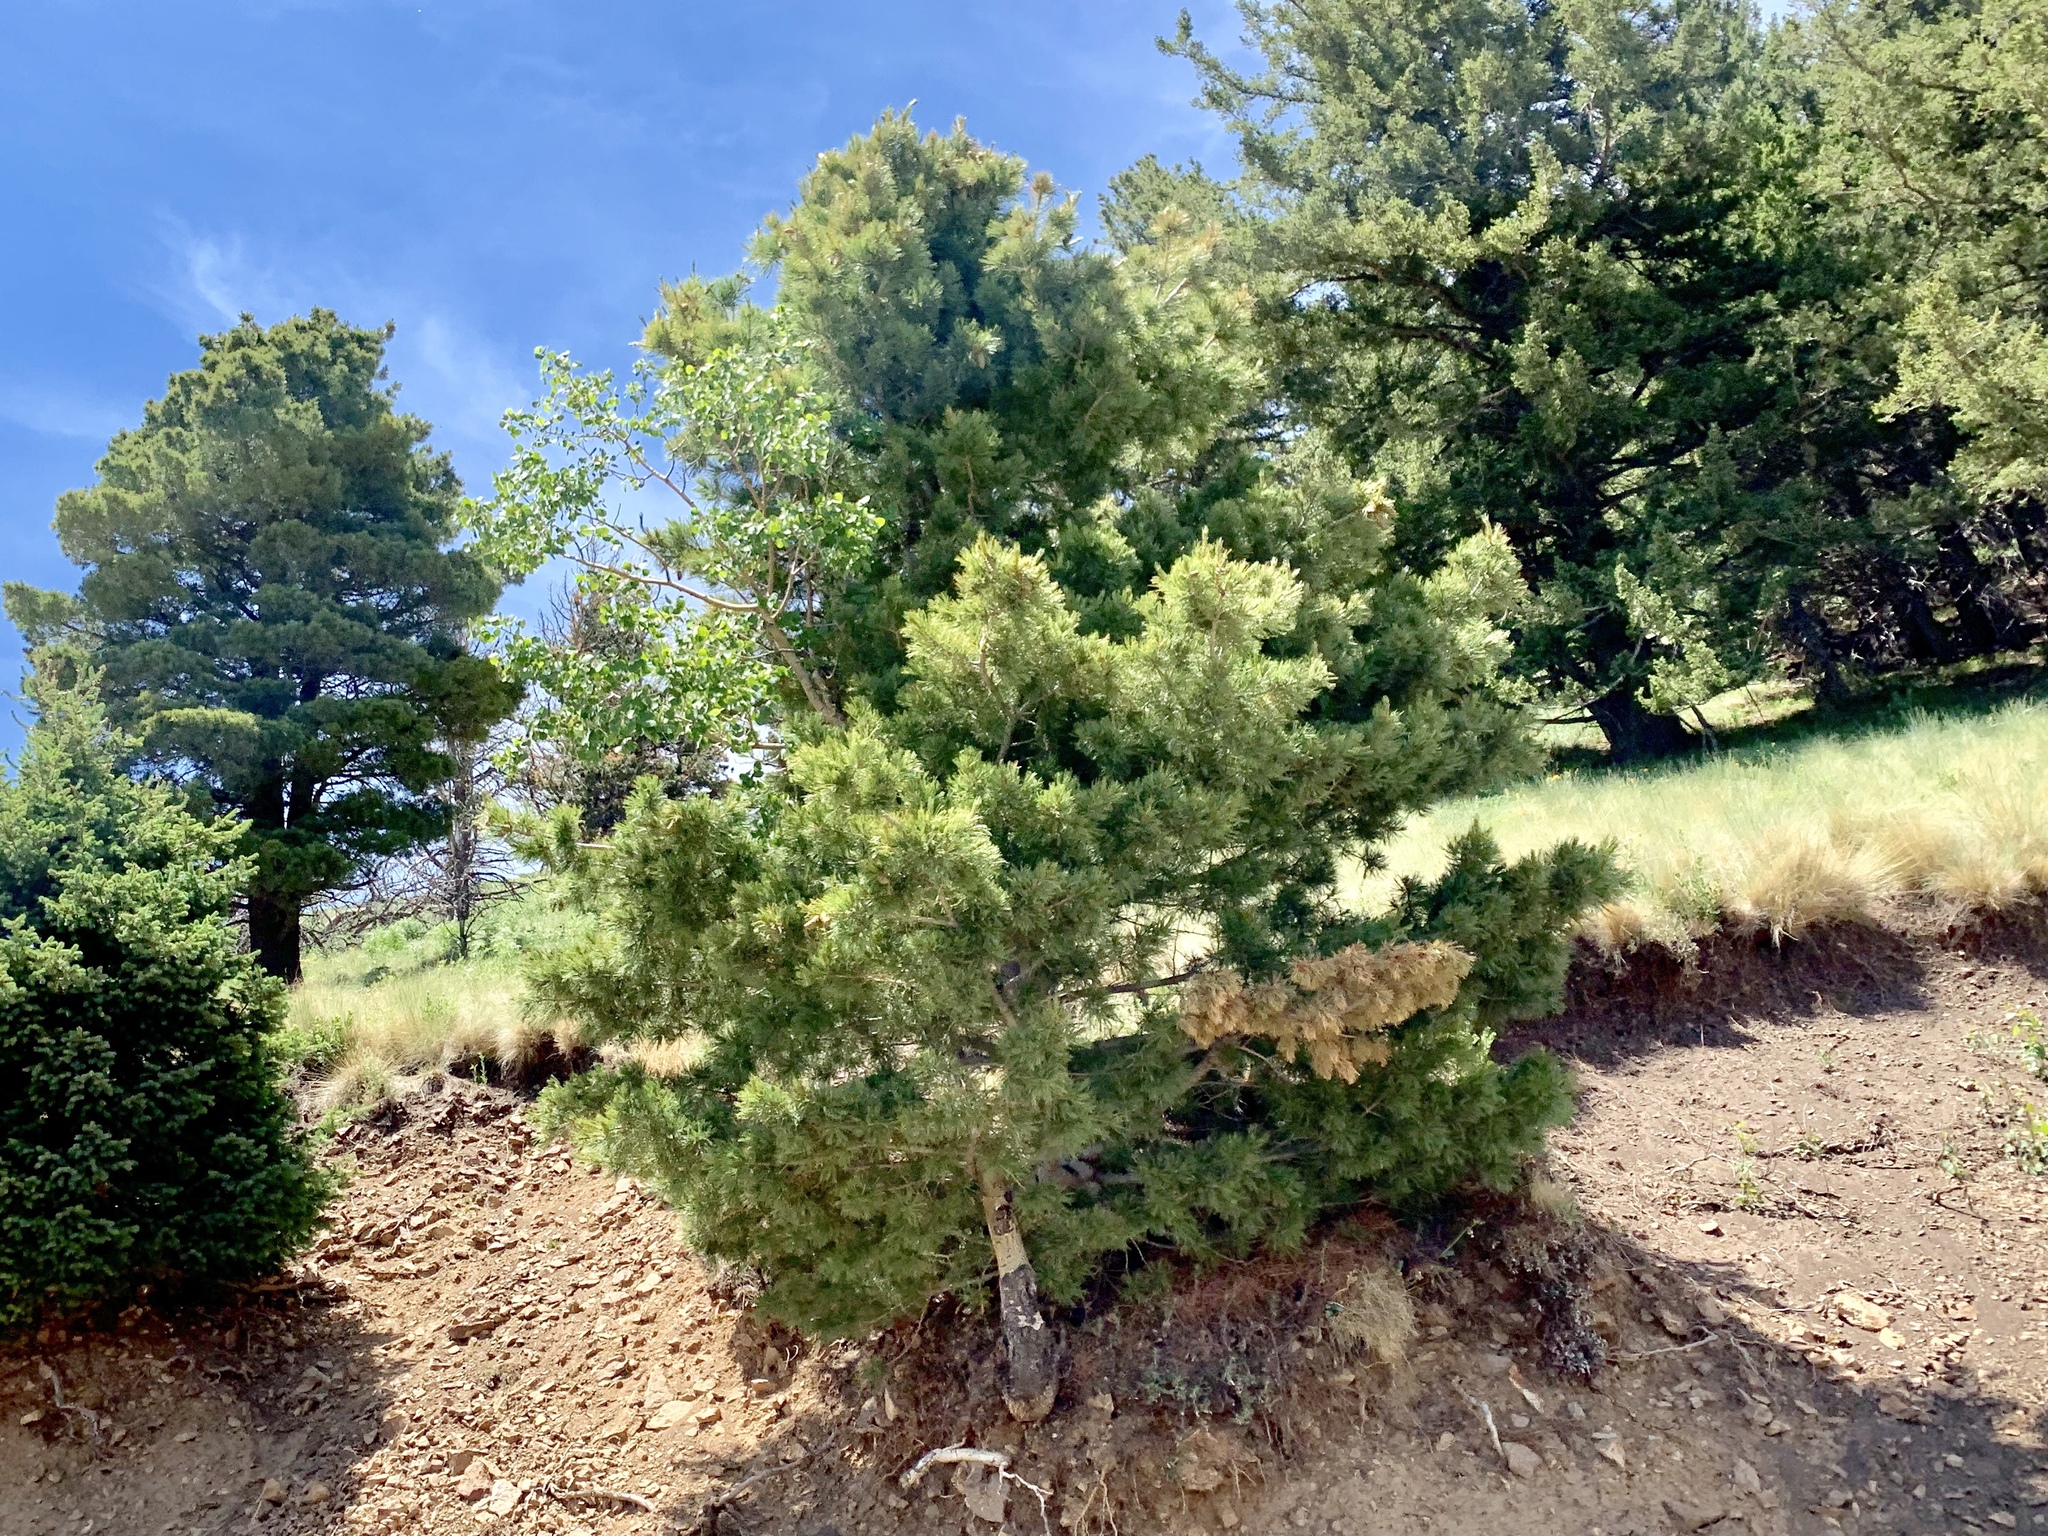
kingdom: Plantae
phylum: Tracheophyta
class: Pinopsida
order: Pinales
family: Pinaceae
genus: Pinus
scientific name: Pinus strobiformis
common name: Southwestern white pine
